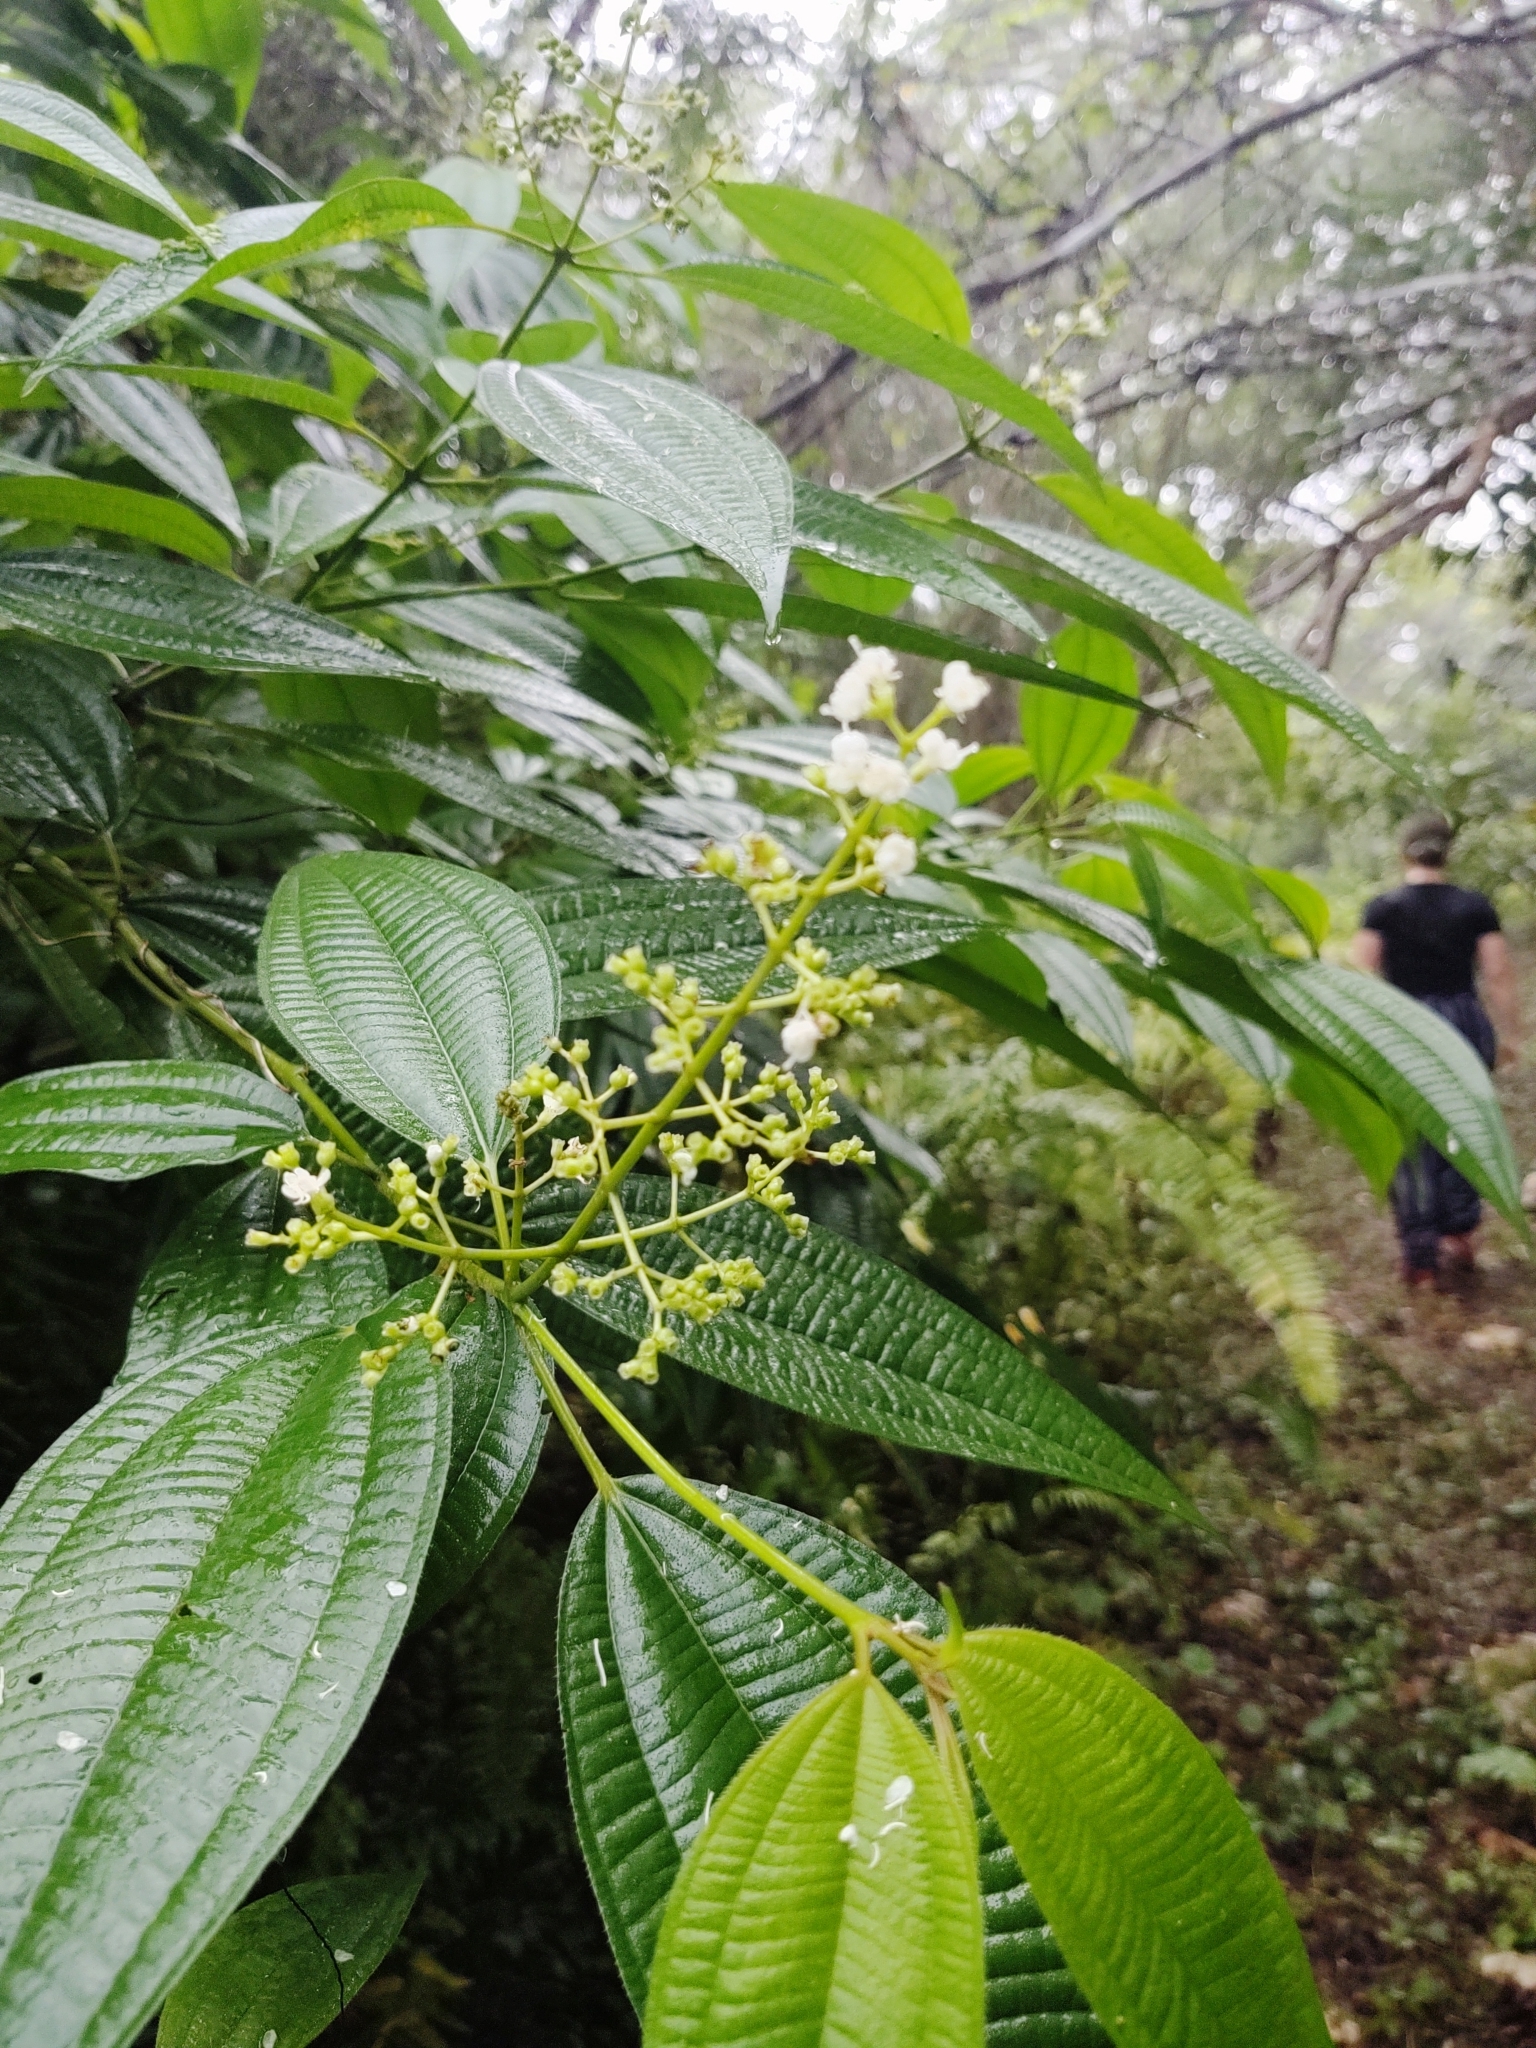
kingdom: Plantae
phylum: Tracheophyta
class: Magnoliopsida
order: Myrtales
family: Melastomataceae
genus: Miconia
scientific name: Miconia laevigata
